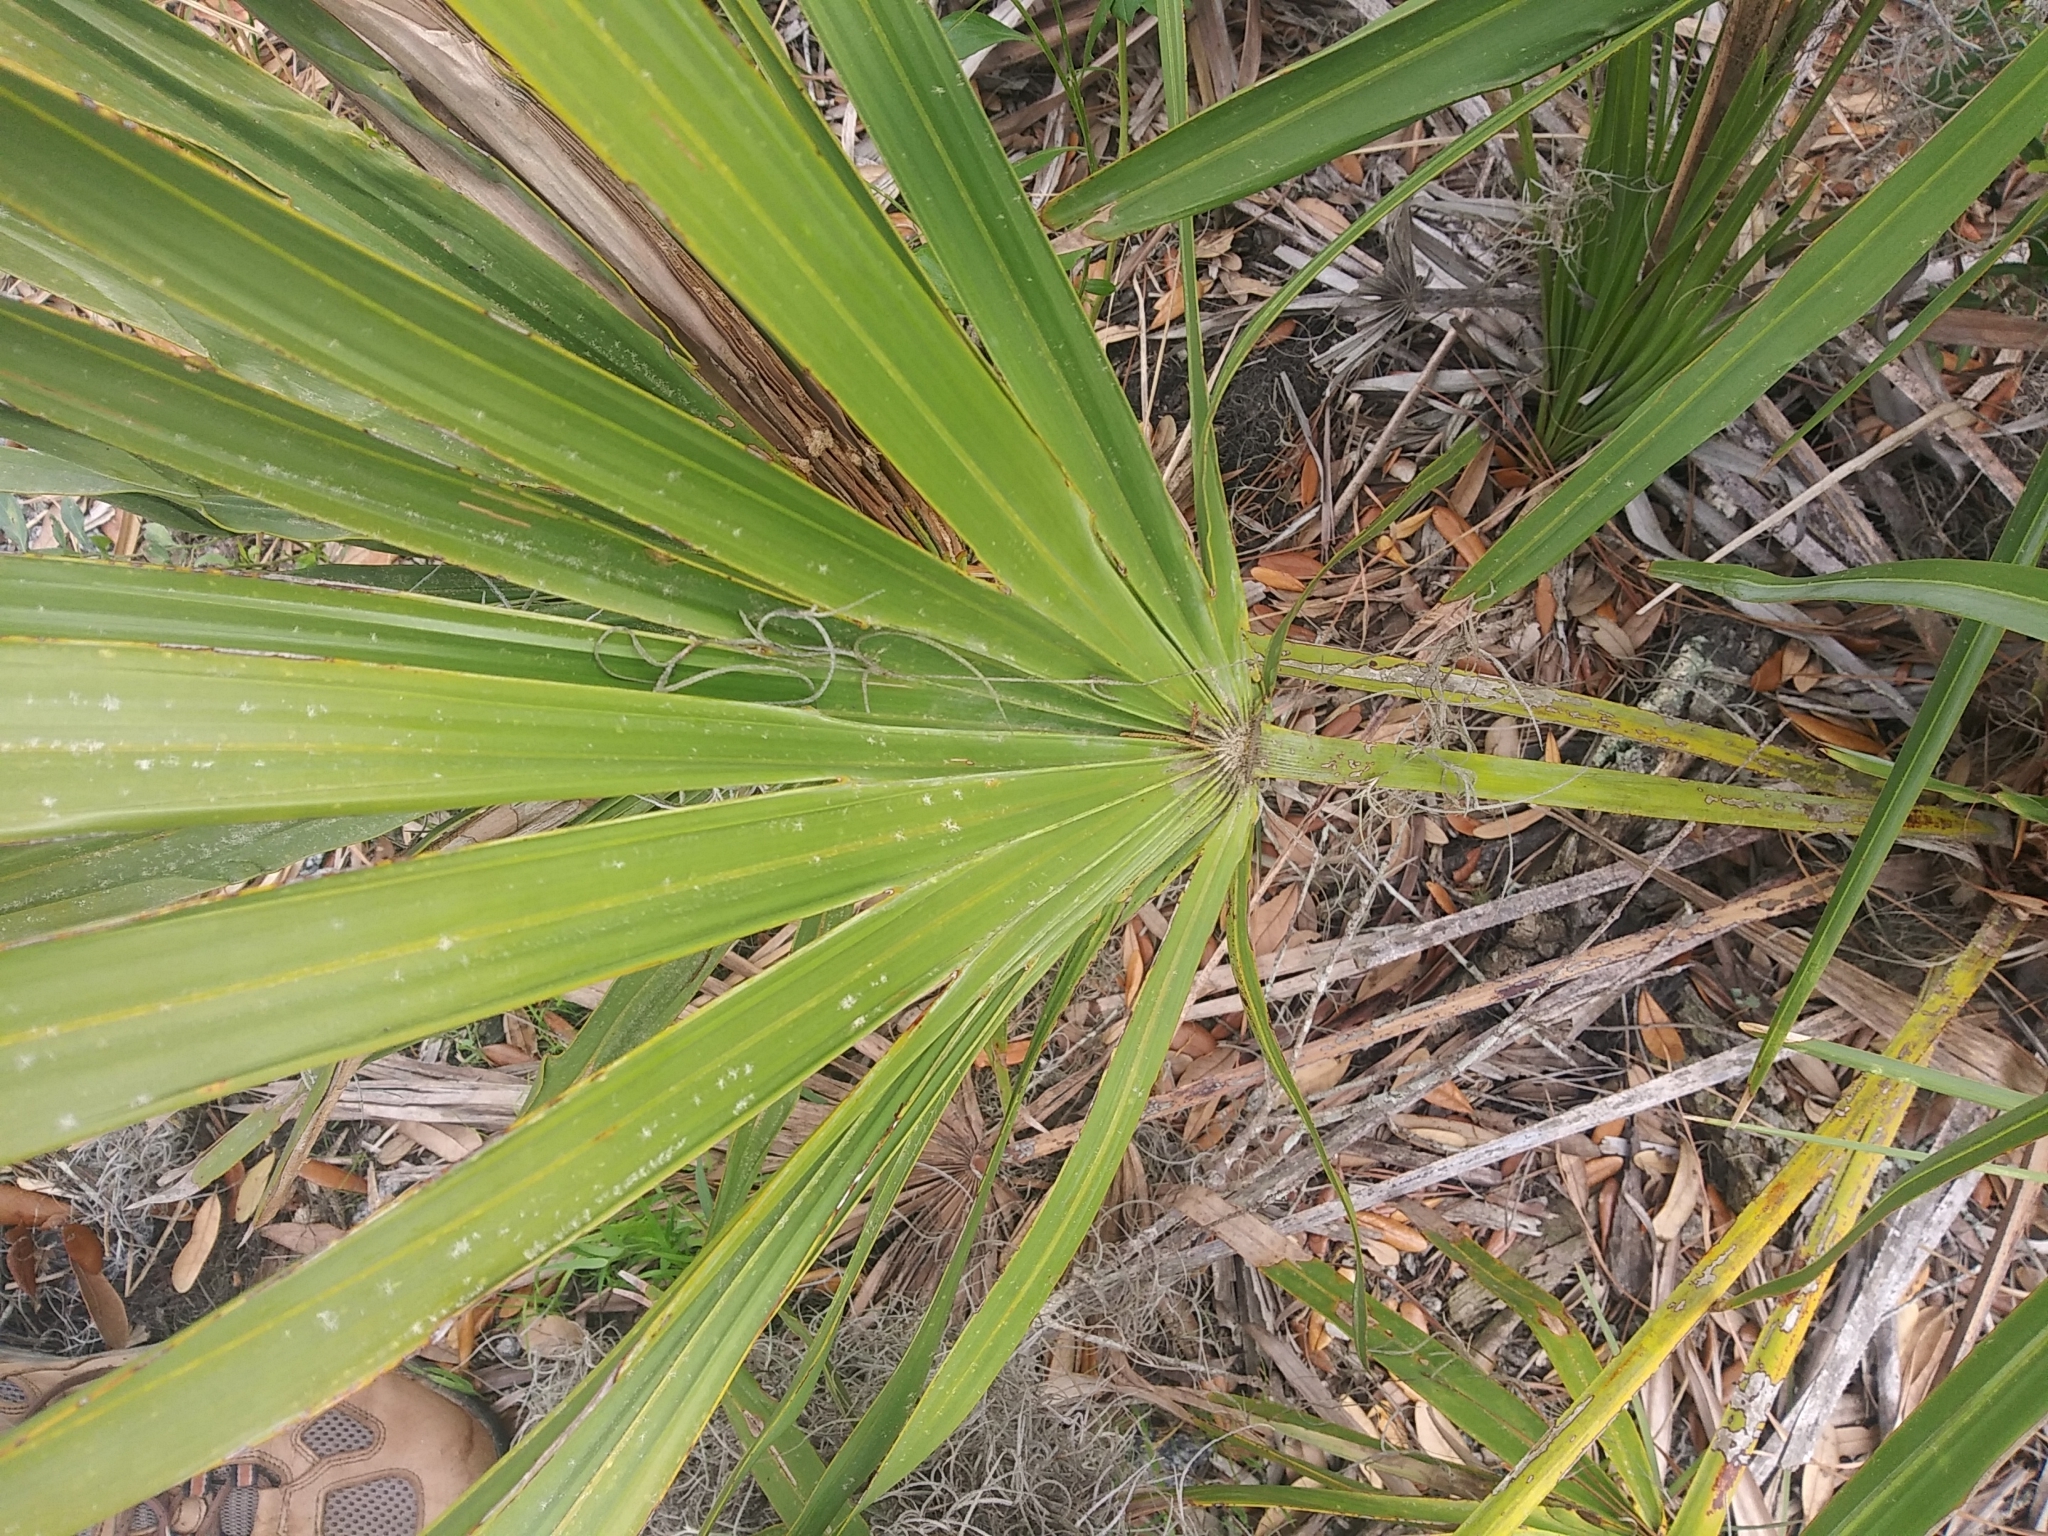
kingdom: Plantae
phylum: Tracheophyta
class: Liliopsida
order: Arecales
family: Arecaceae
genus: Serenoa
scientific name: Serenoa repens
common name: Saw-palmetto
